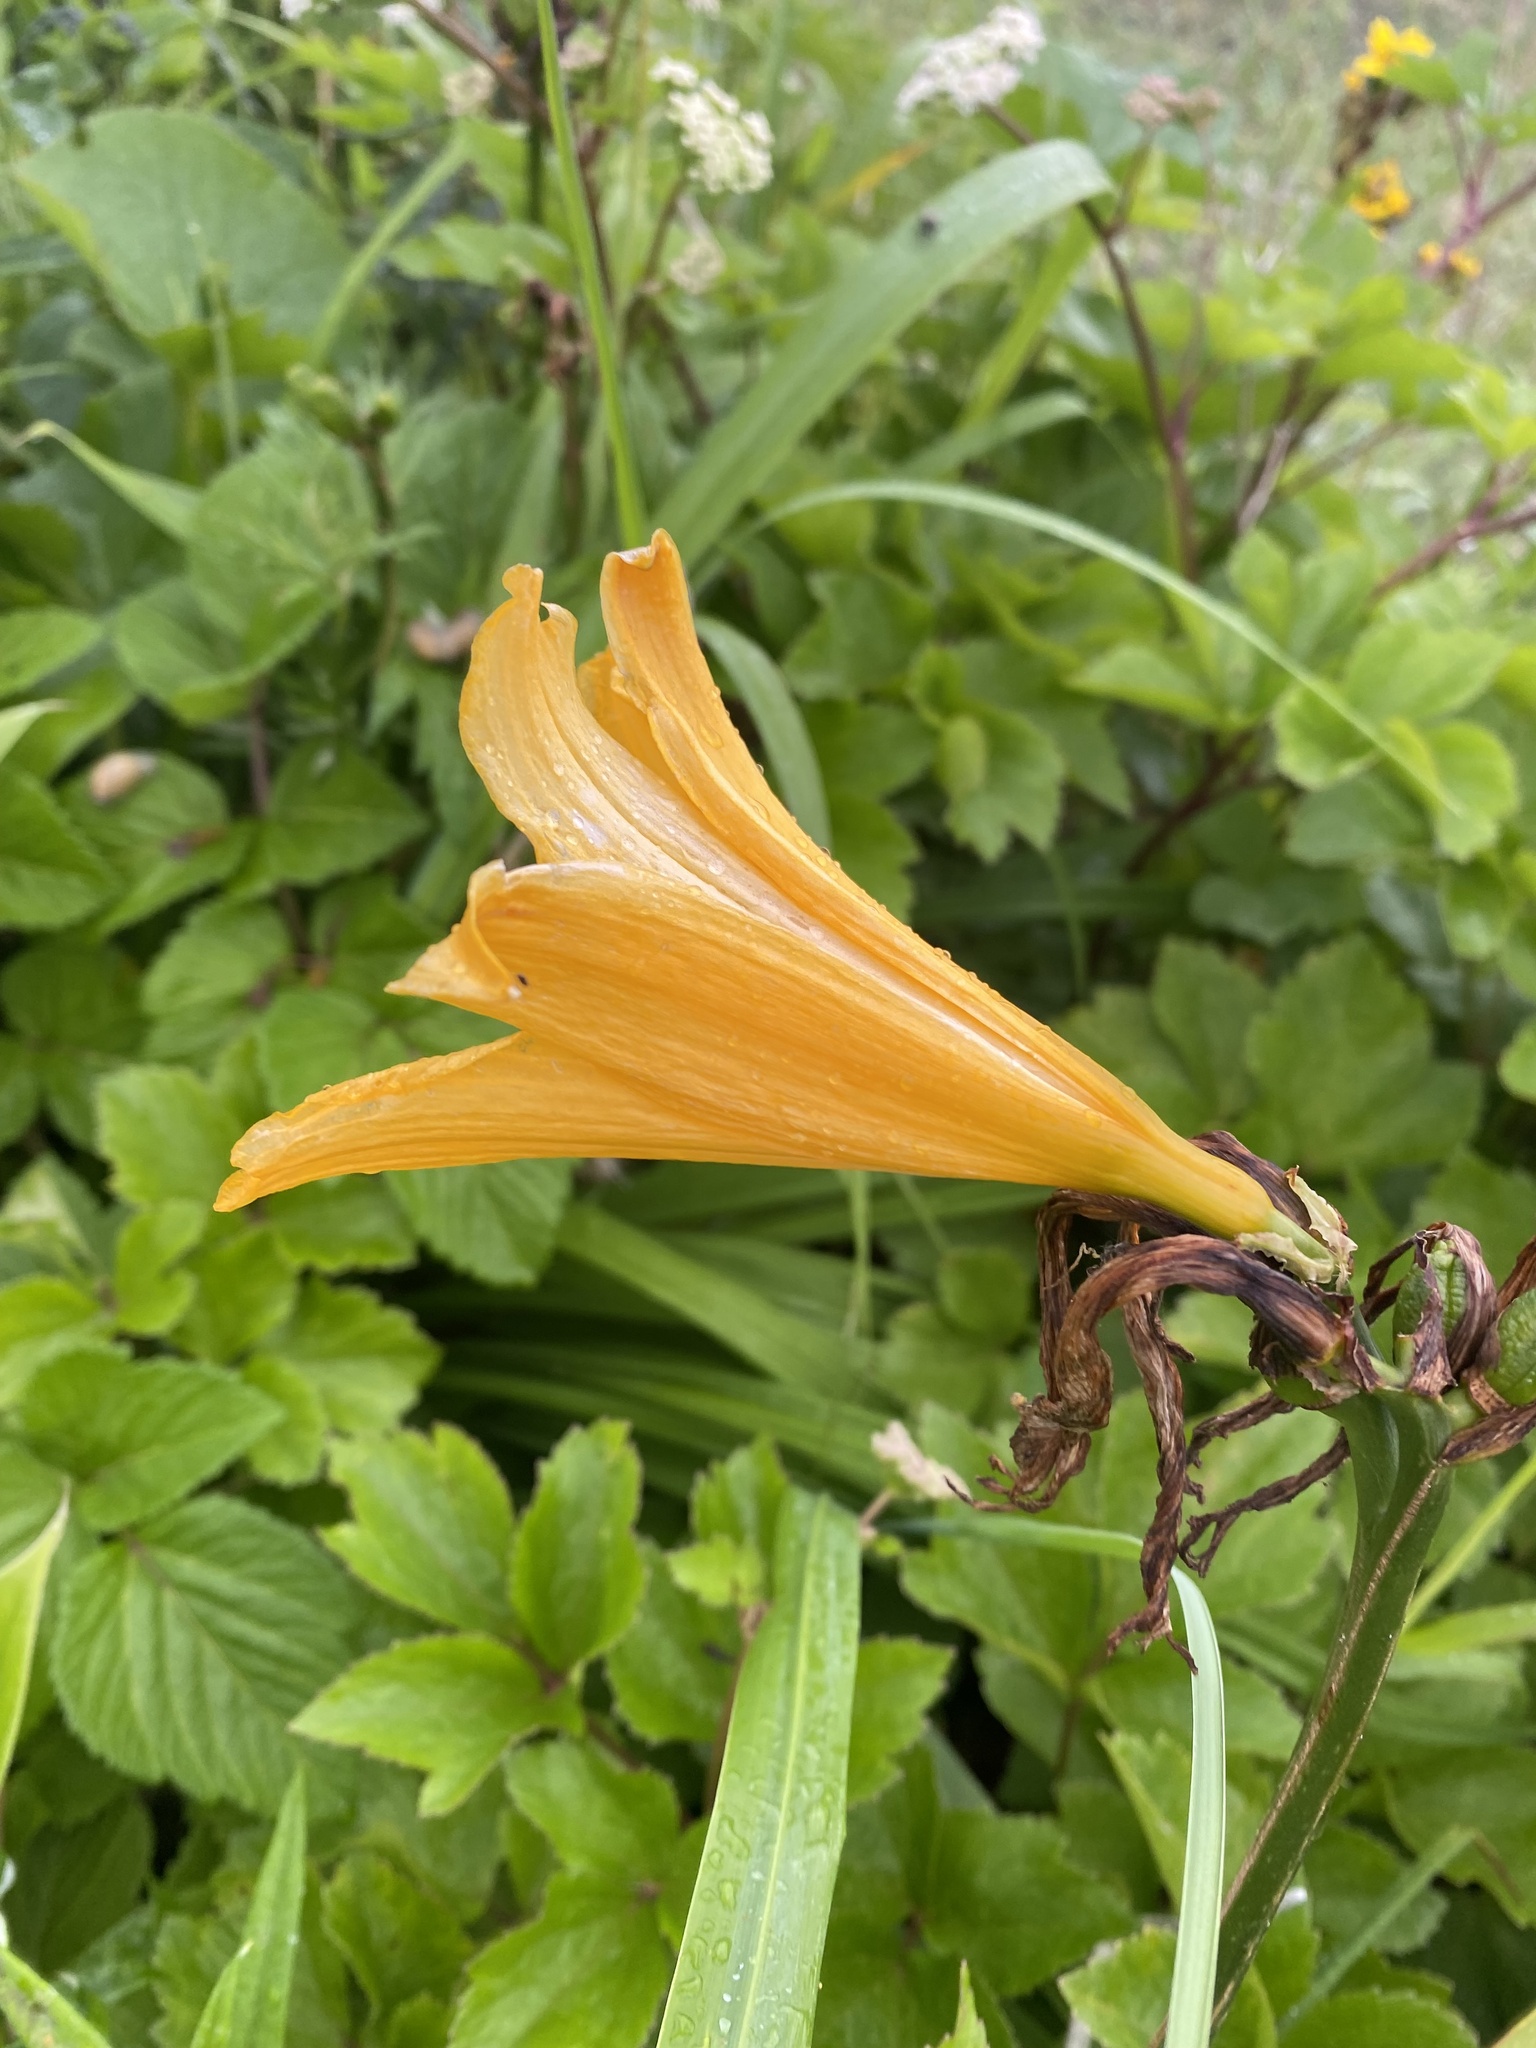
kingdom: Plantae
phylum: Tracheophyta
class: Liliopsida
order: Asparagales
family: Asphodelaceae
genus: Hemerocallis
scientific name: Hemerocallis middendorffii
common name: Amur day-lily
